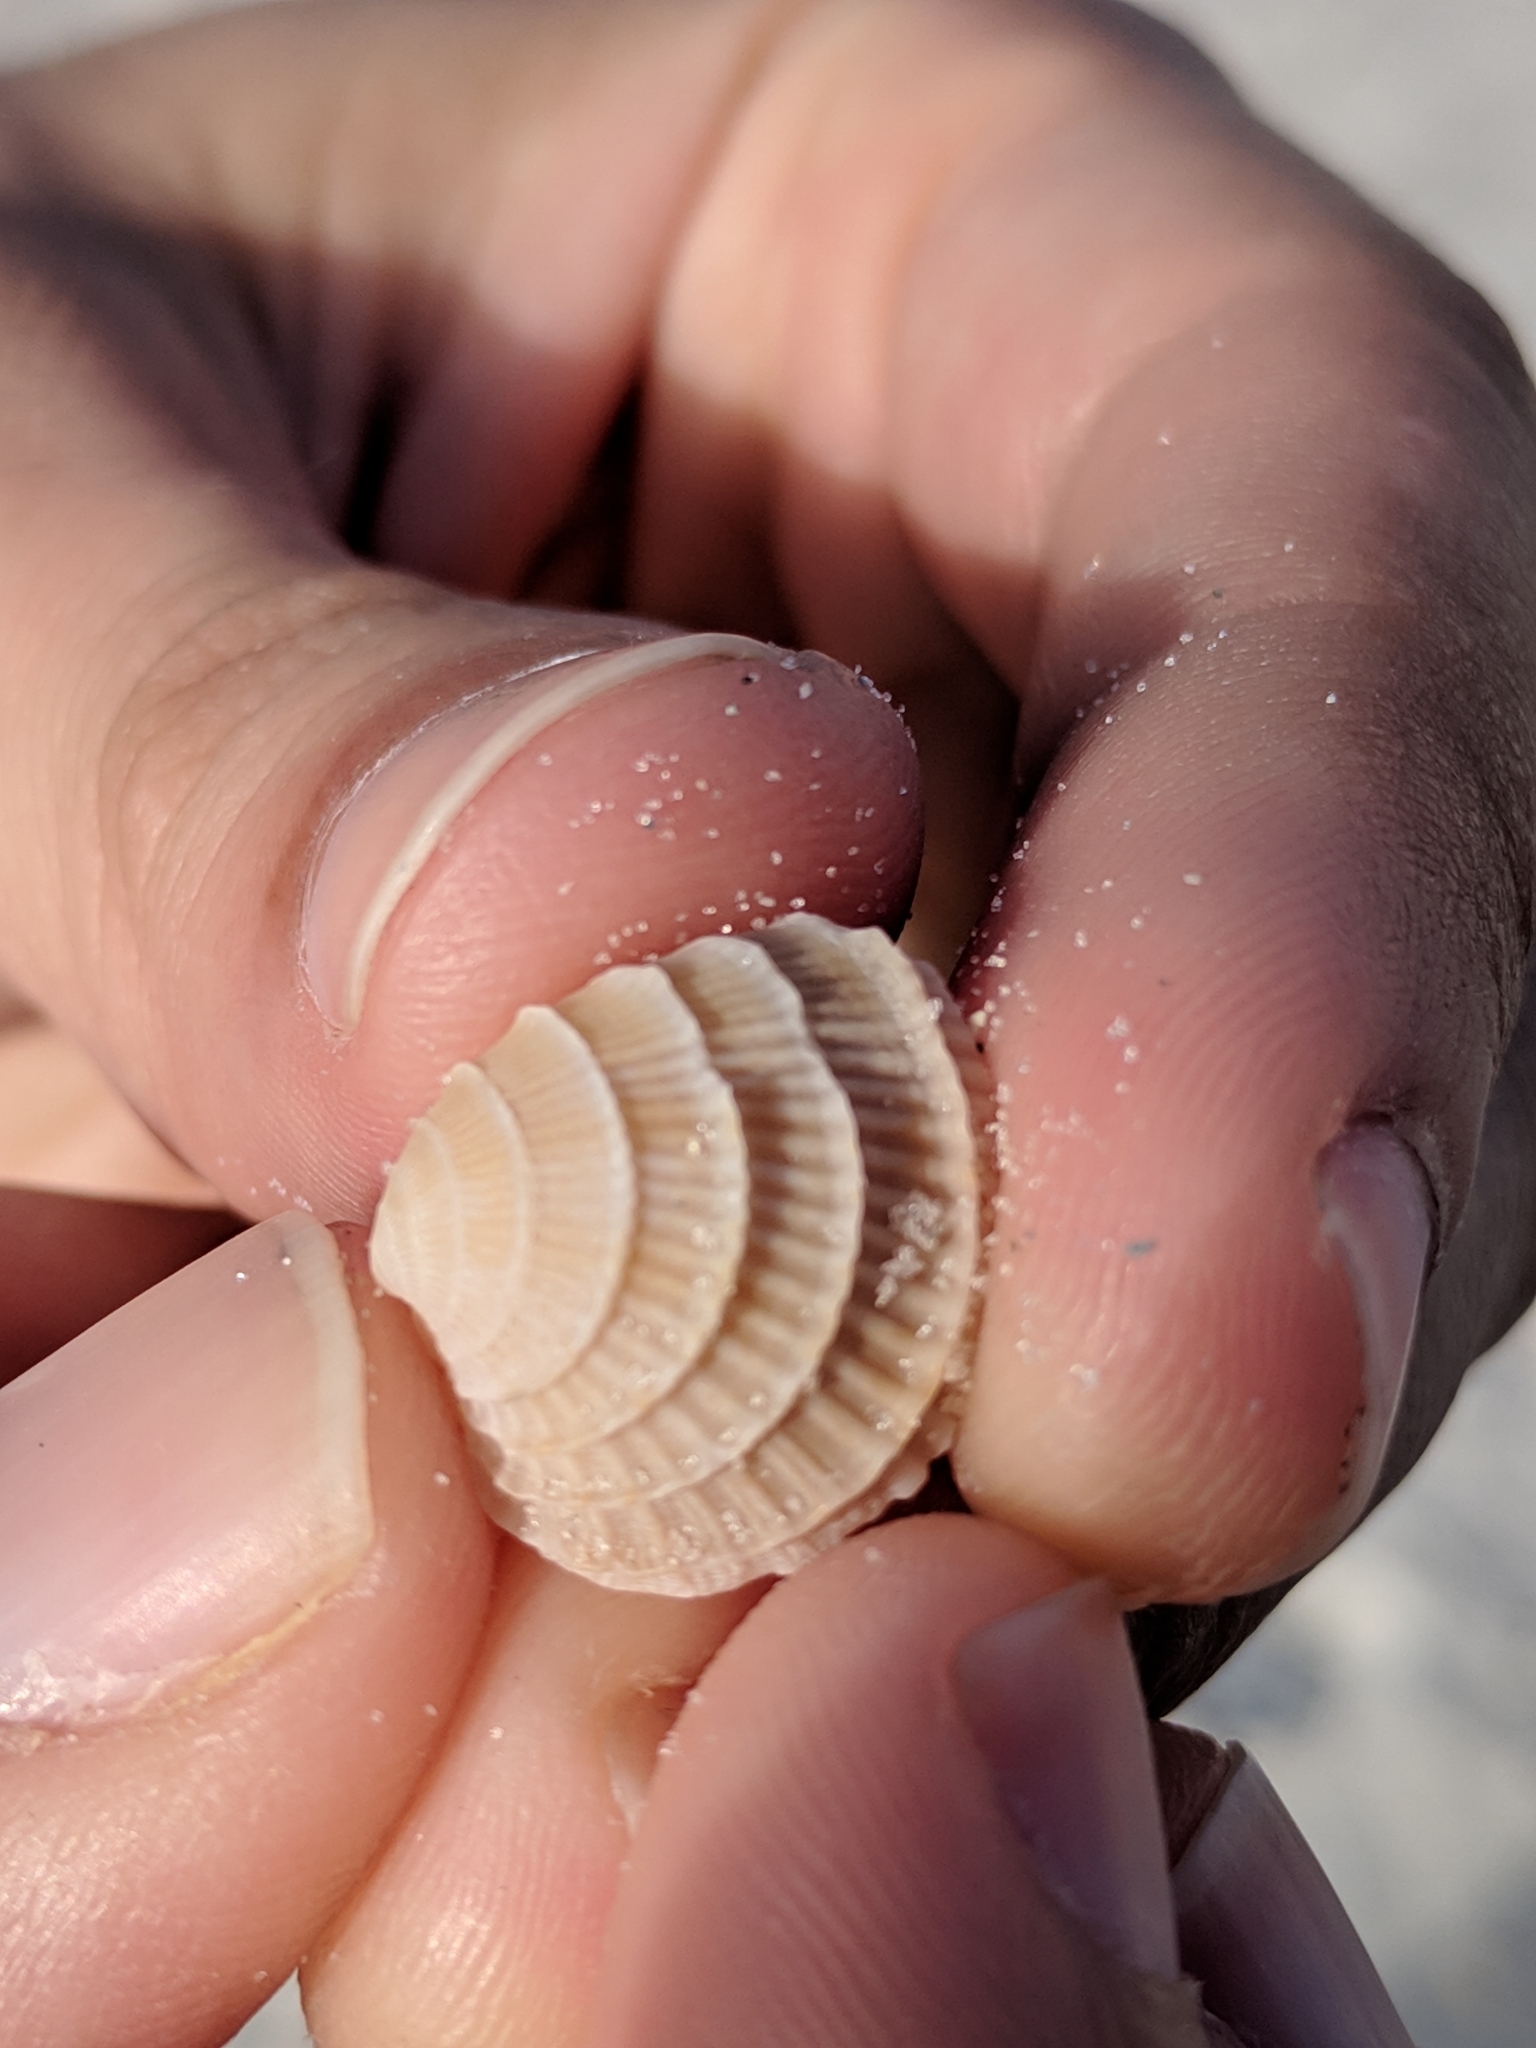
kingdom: Animalia
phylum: Mollusca
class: Bivalvia
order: Venerida
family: Veneridae
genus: Chione
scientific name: Chione elevata
